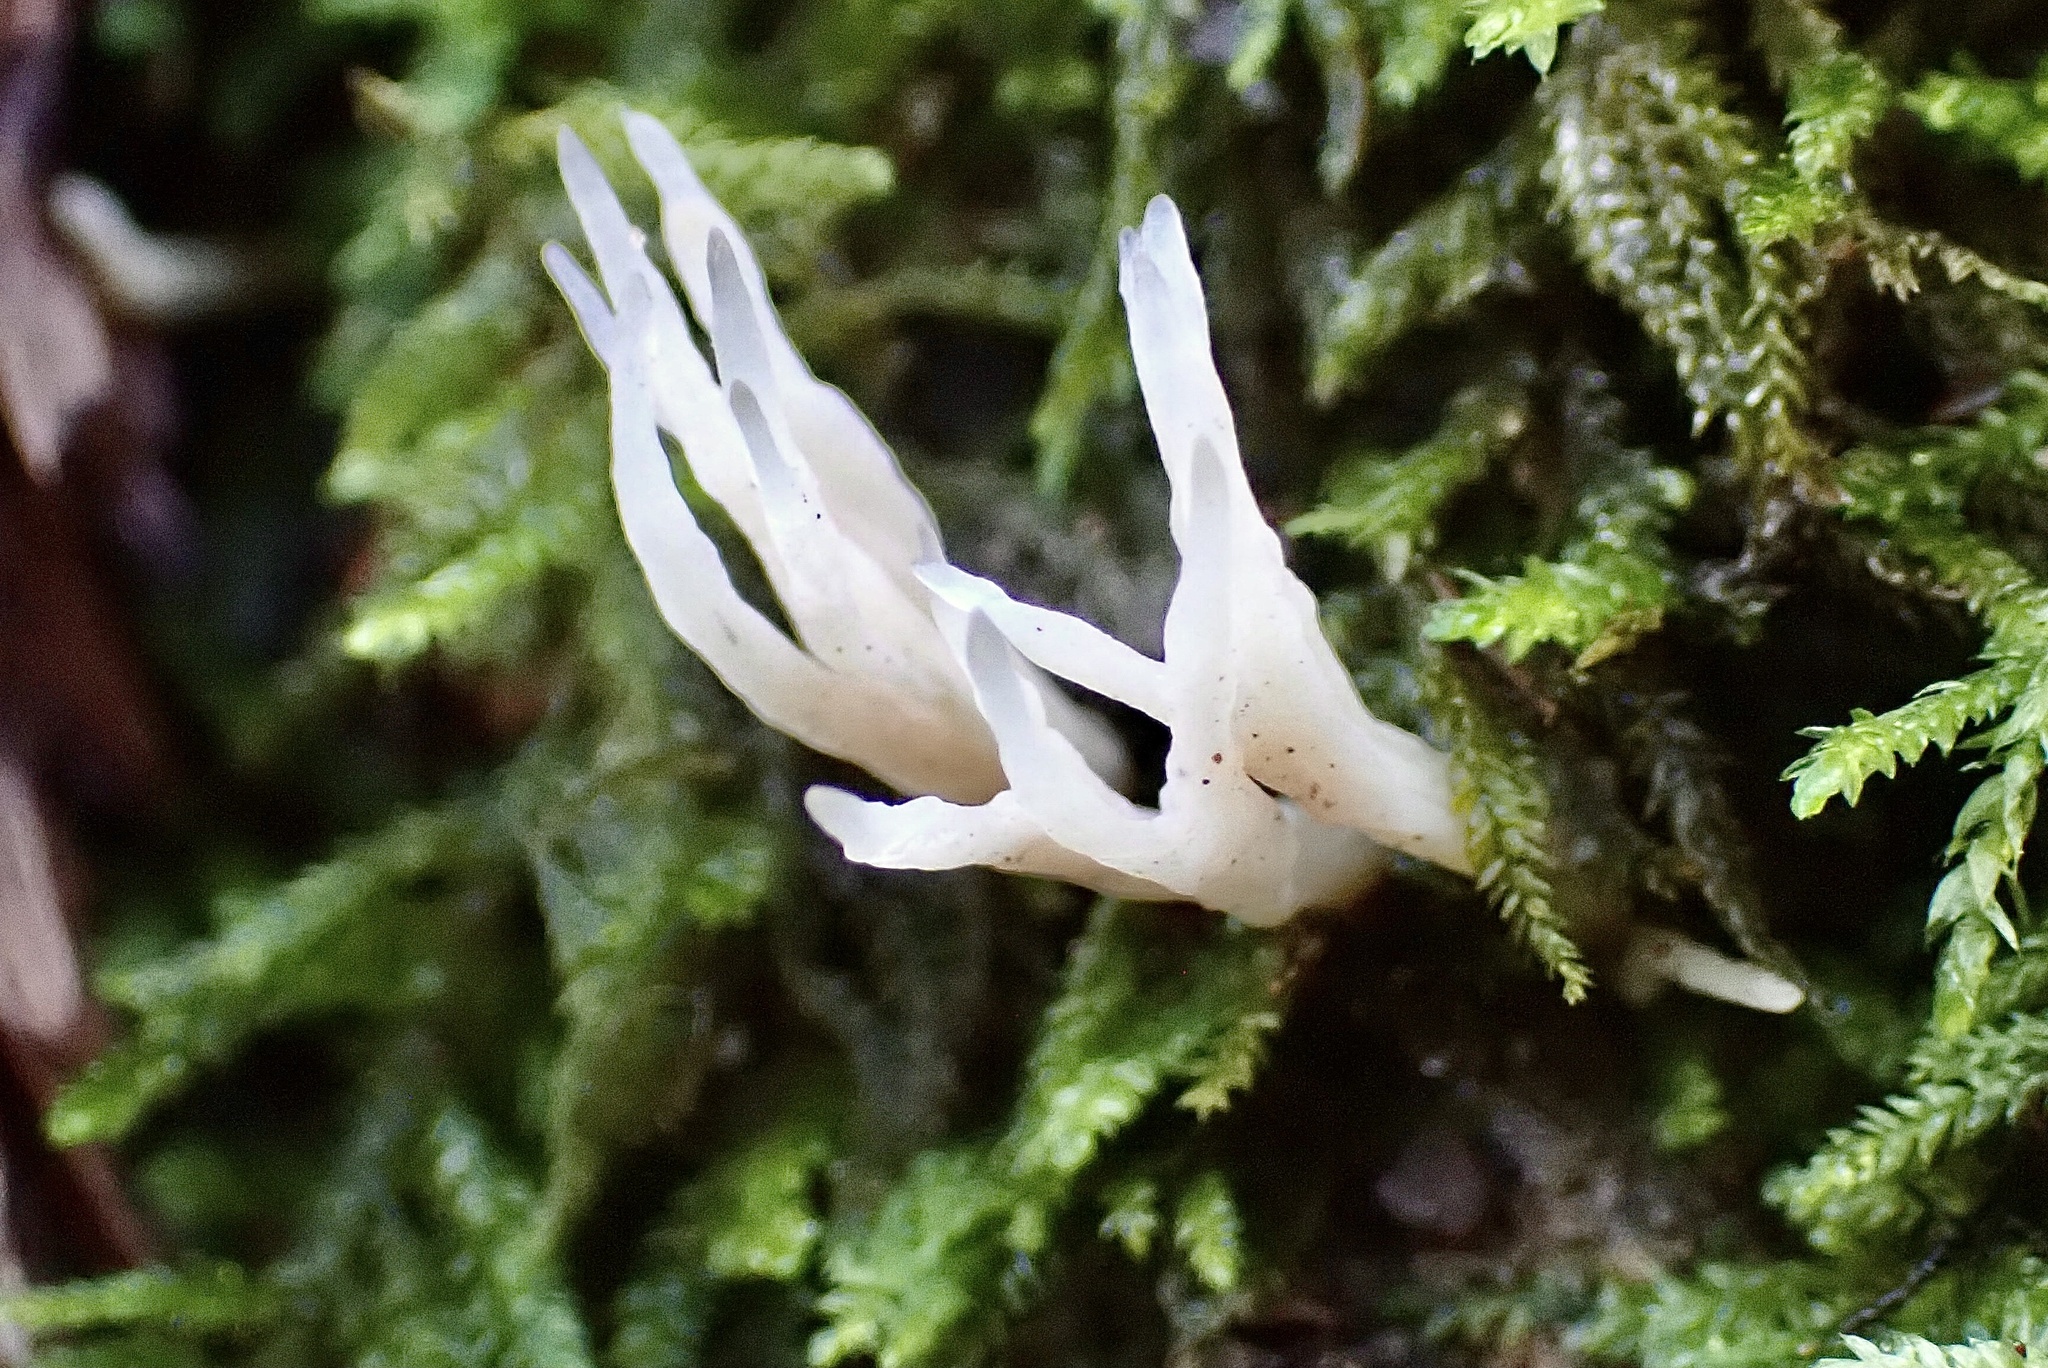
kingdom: Fungi
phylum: Basidiomycota
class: Agaricomycetes
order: Tremellodendropsidales
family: Tremellodendropsidaceae
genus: Tremellodendropsis
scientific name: Tremellodendropsis tuberosa
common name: Ashen coral
